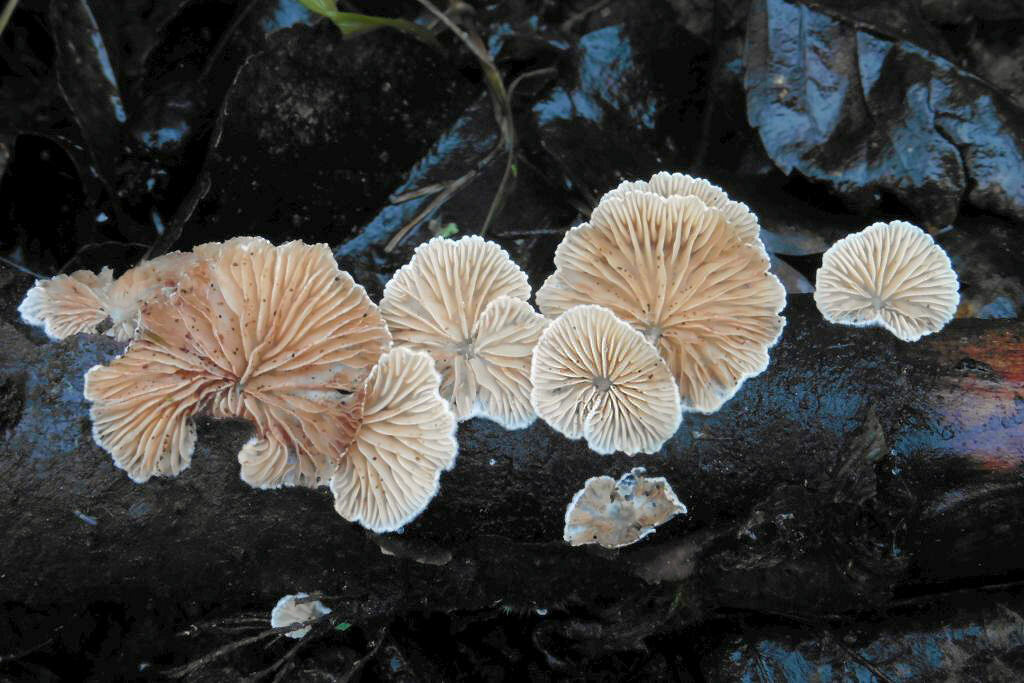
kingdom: Fungi
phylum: Basidiomycota
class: Agaricomycetes
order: Agaricales
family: Crepidotaceae
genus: Crepidotus
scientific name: Crepidotus cesatii
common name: Roundspored oysterling
